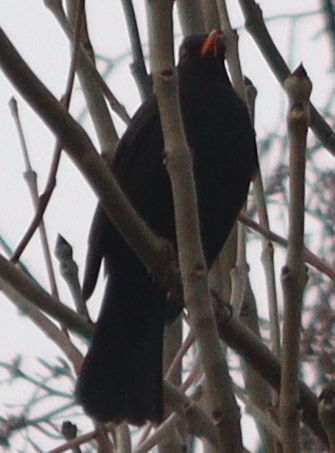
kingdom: Animalia
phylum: Chordata
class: Aves
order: Passeriformes
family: Turdidae
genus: Turdus
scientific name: Turdus merula
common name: Common blackbird
